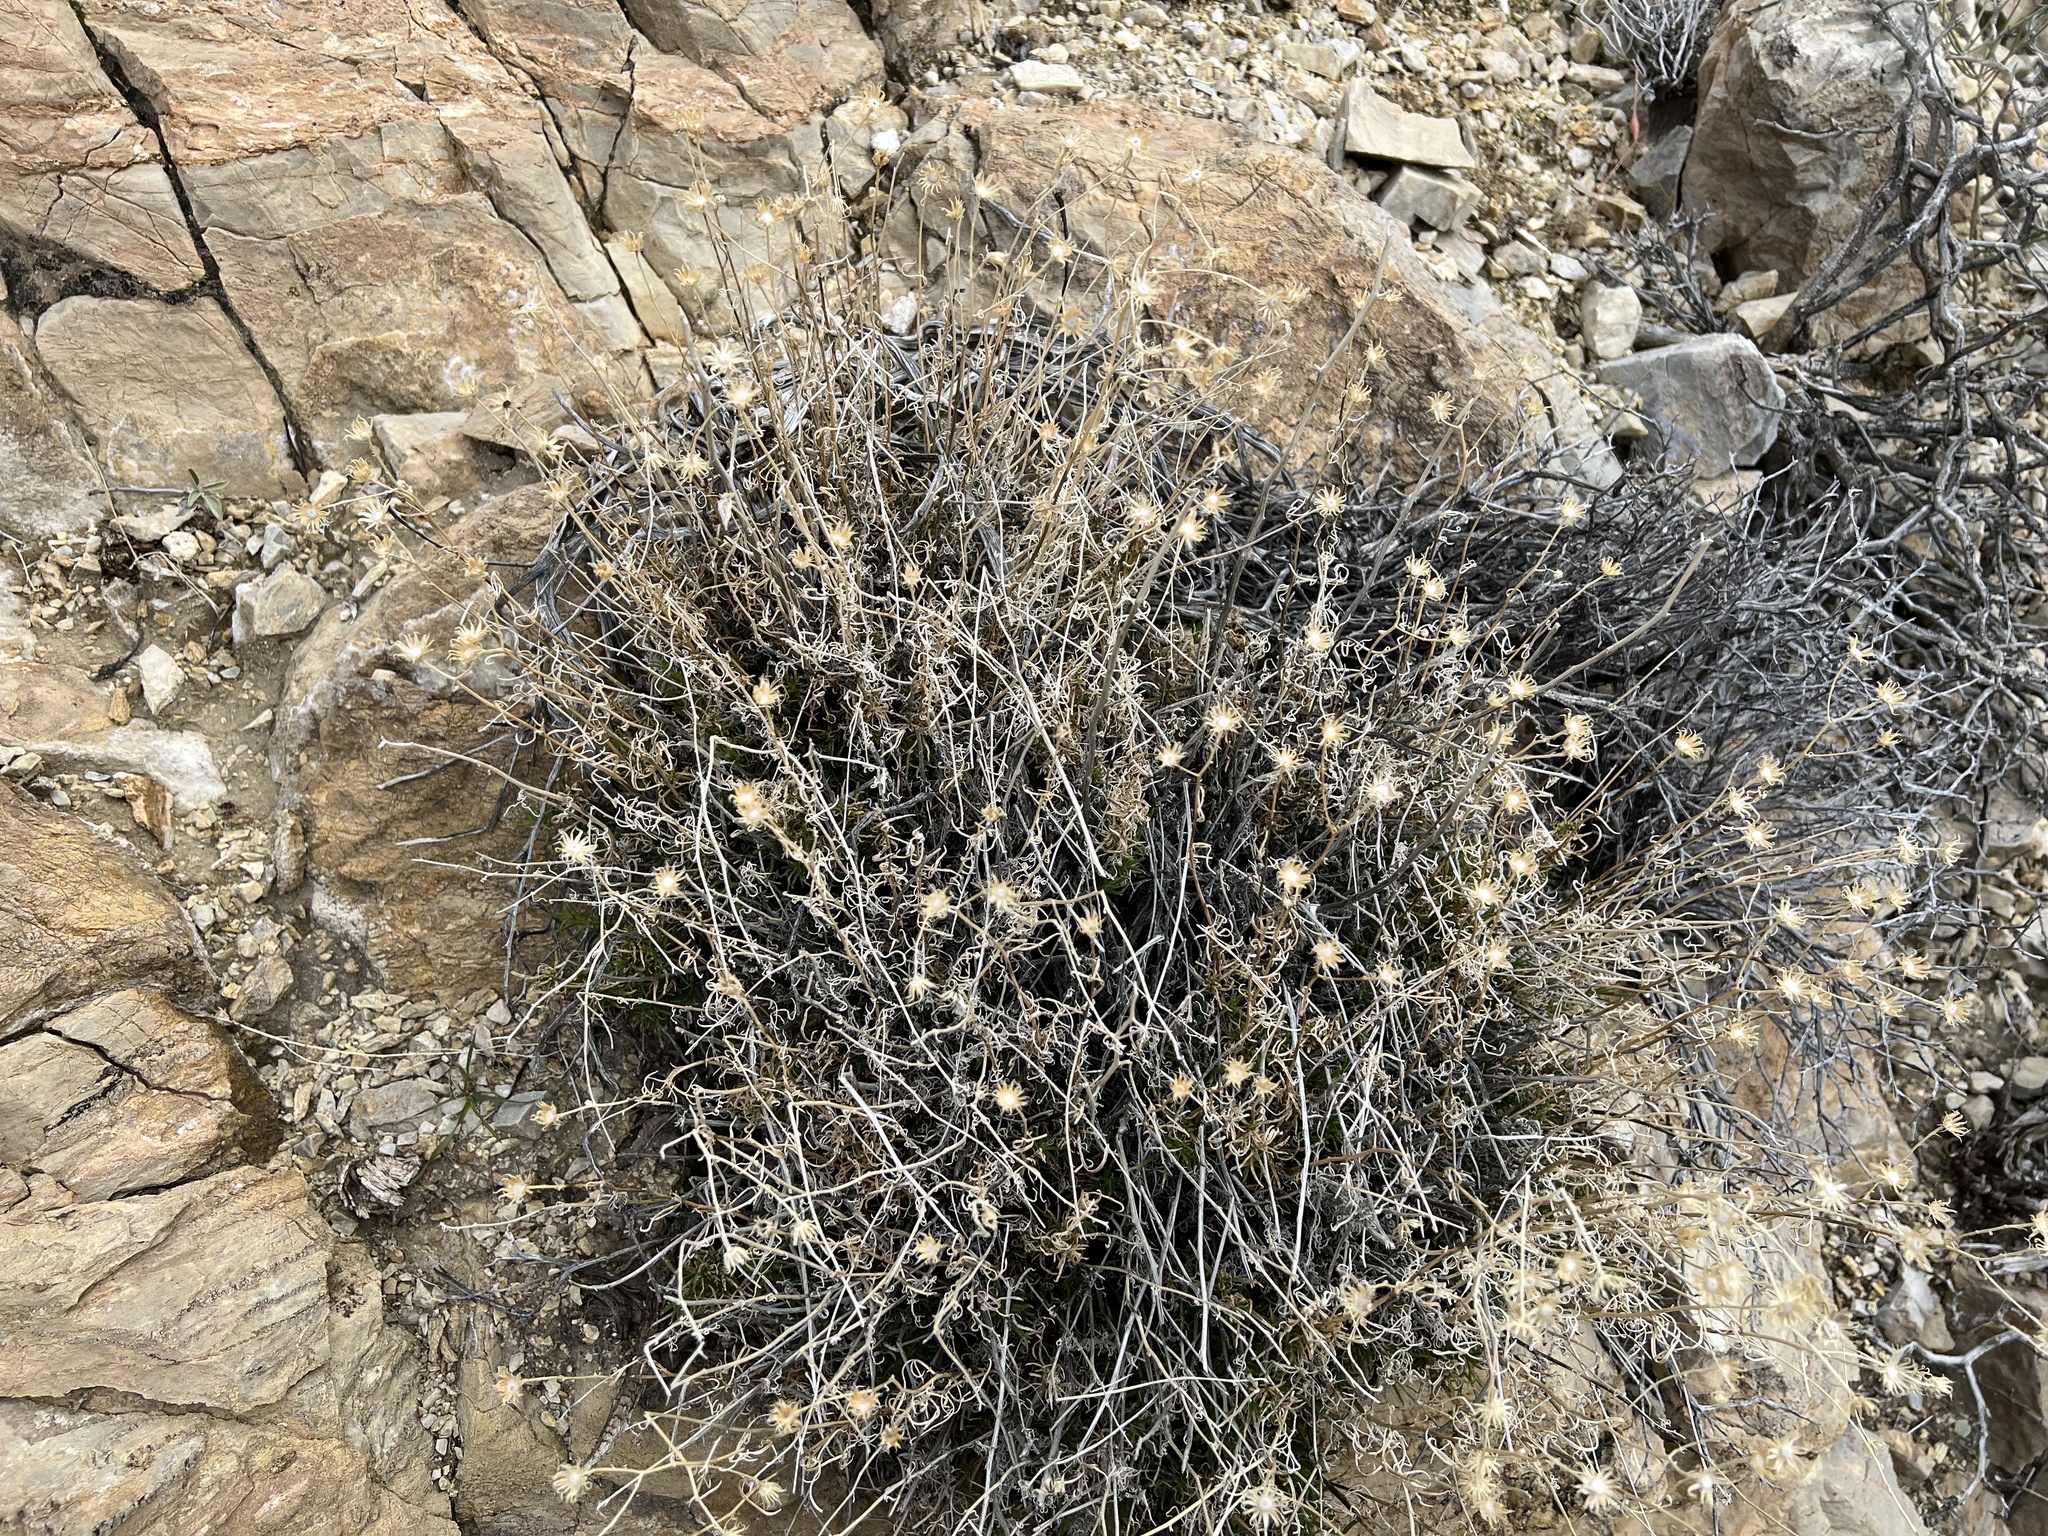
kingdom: Plantae
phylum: Tracheophyta
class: Magnoliopsida
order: Asterales
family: Asteraceae
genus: Senecio
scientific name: Senecio flaccidus
